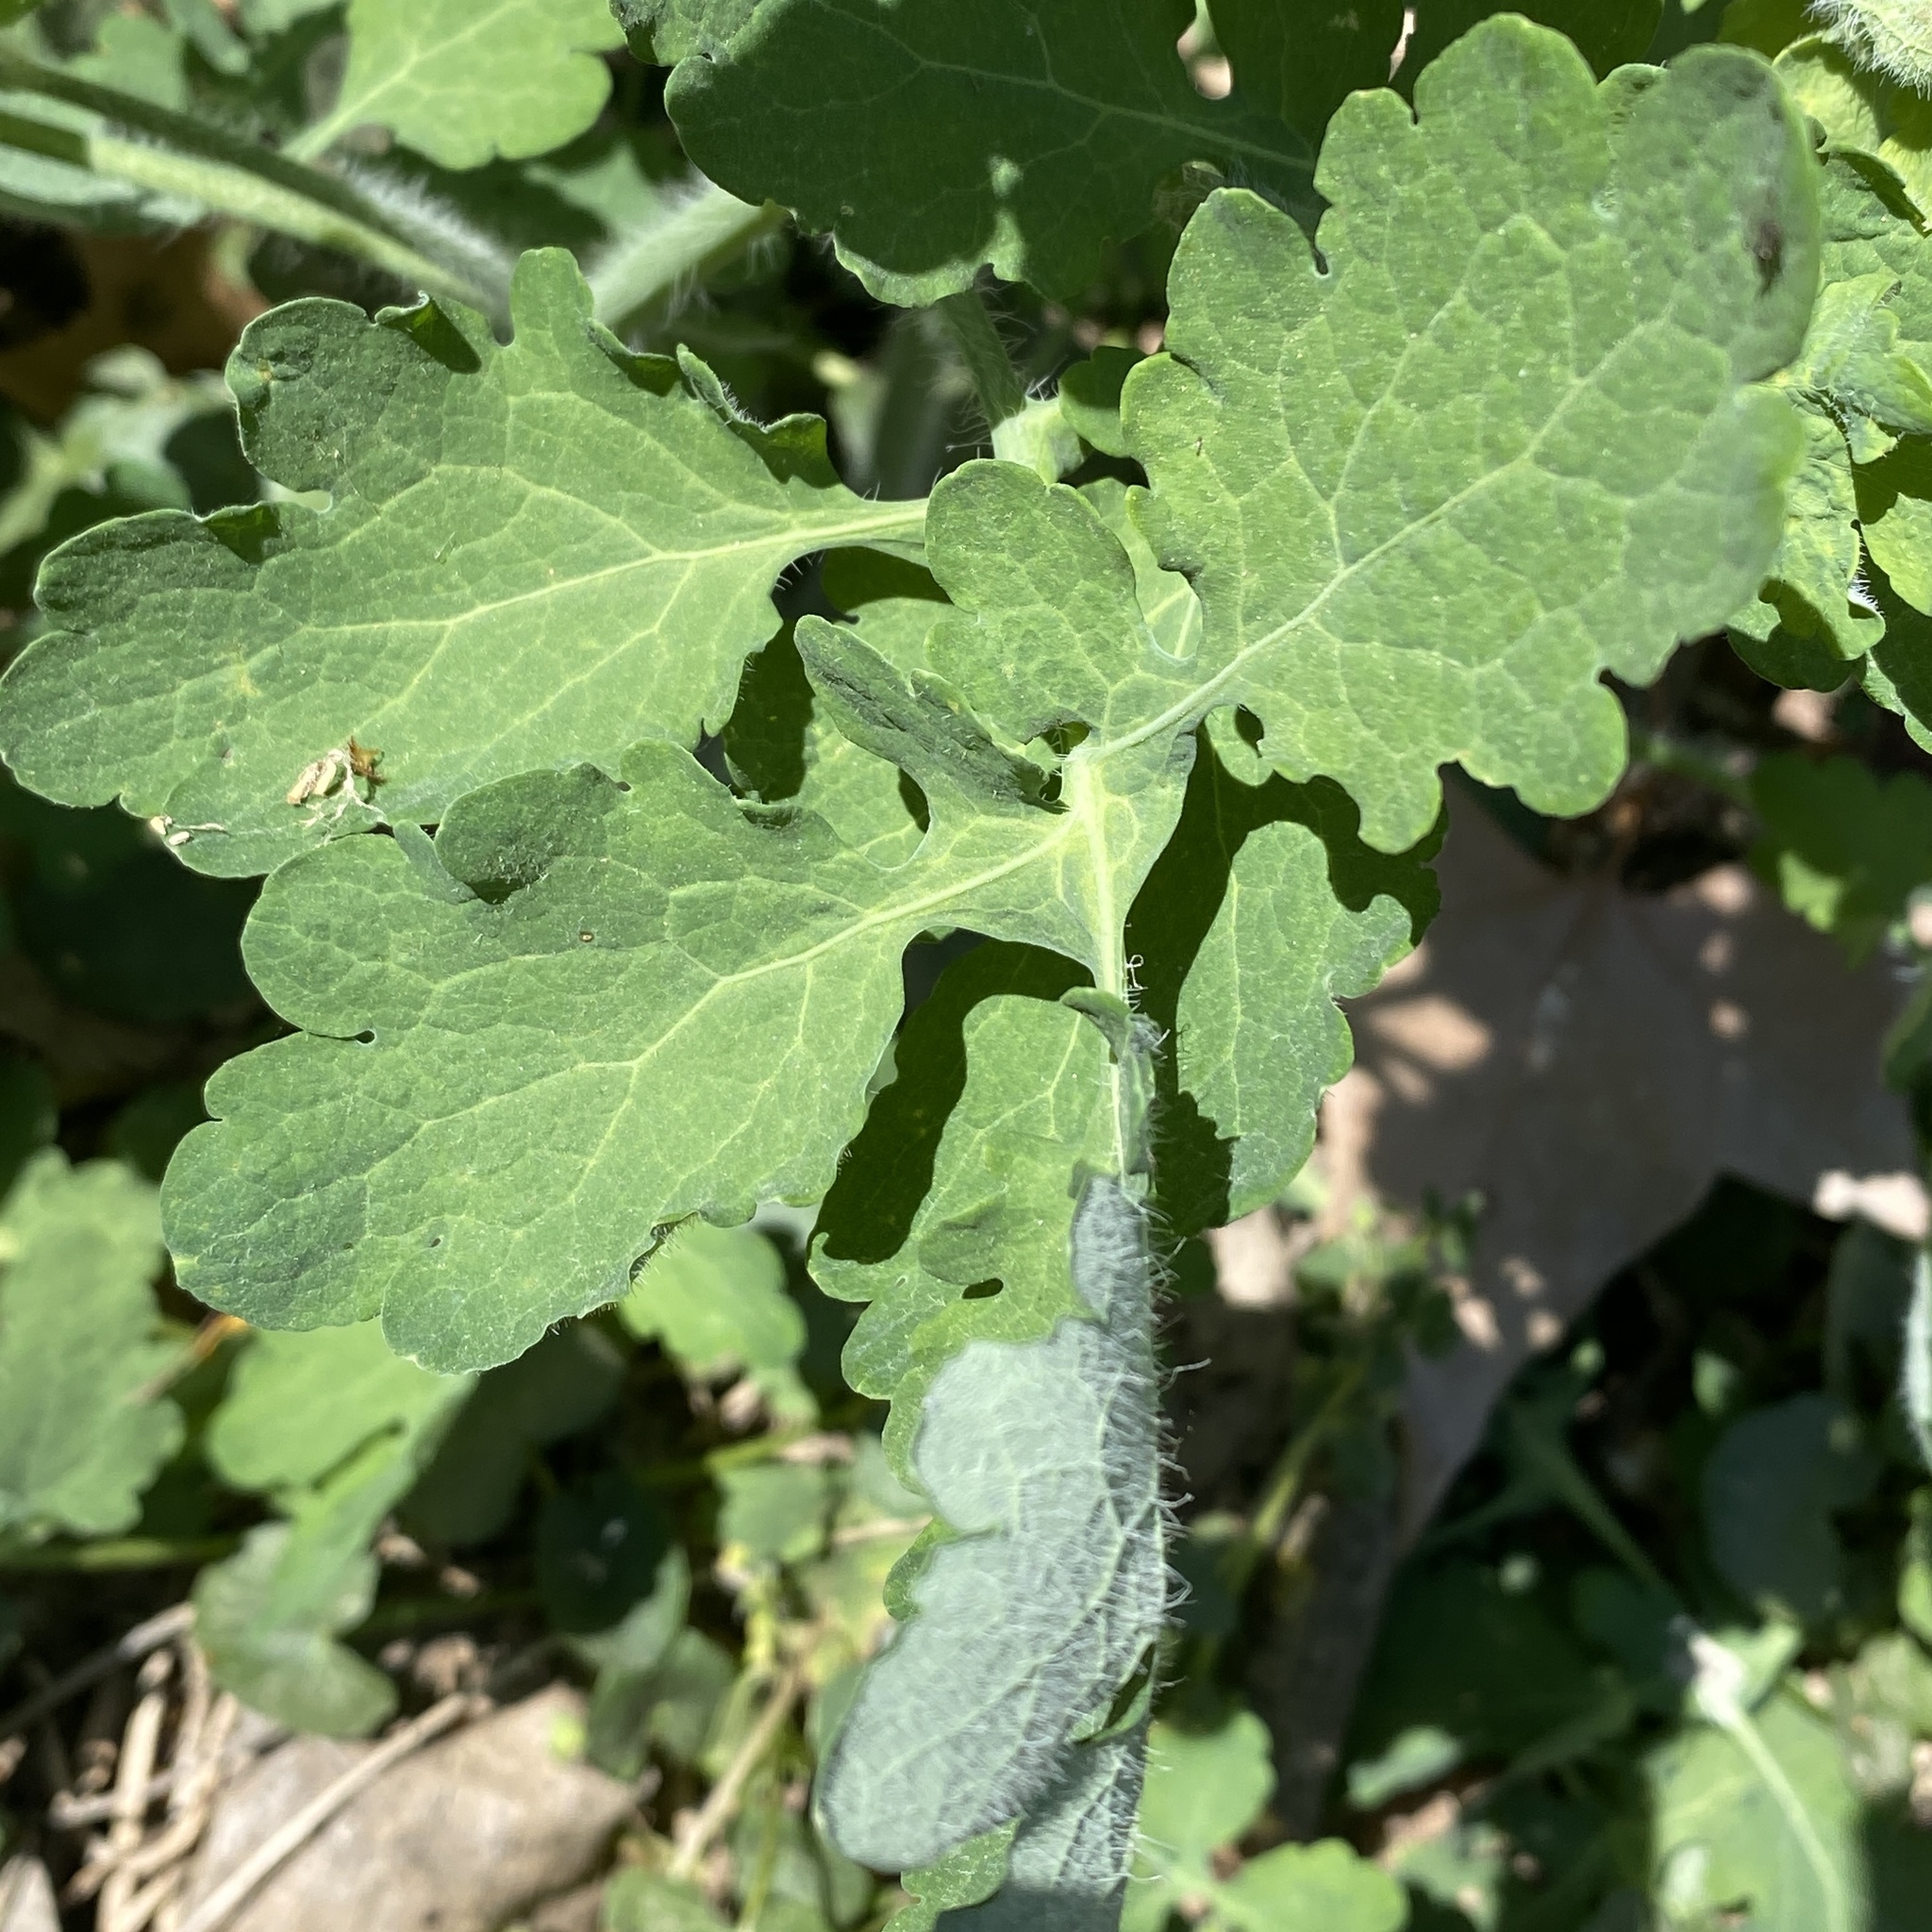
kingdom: Plantae
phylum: Tracheophyta
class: Magnoliopsida
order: Ranunculales
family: Papaveraceae
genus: Chelidonium
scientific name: Chelidonium majus
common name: Greater celandine
